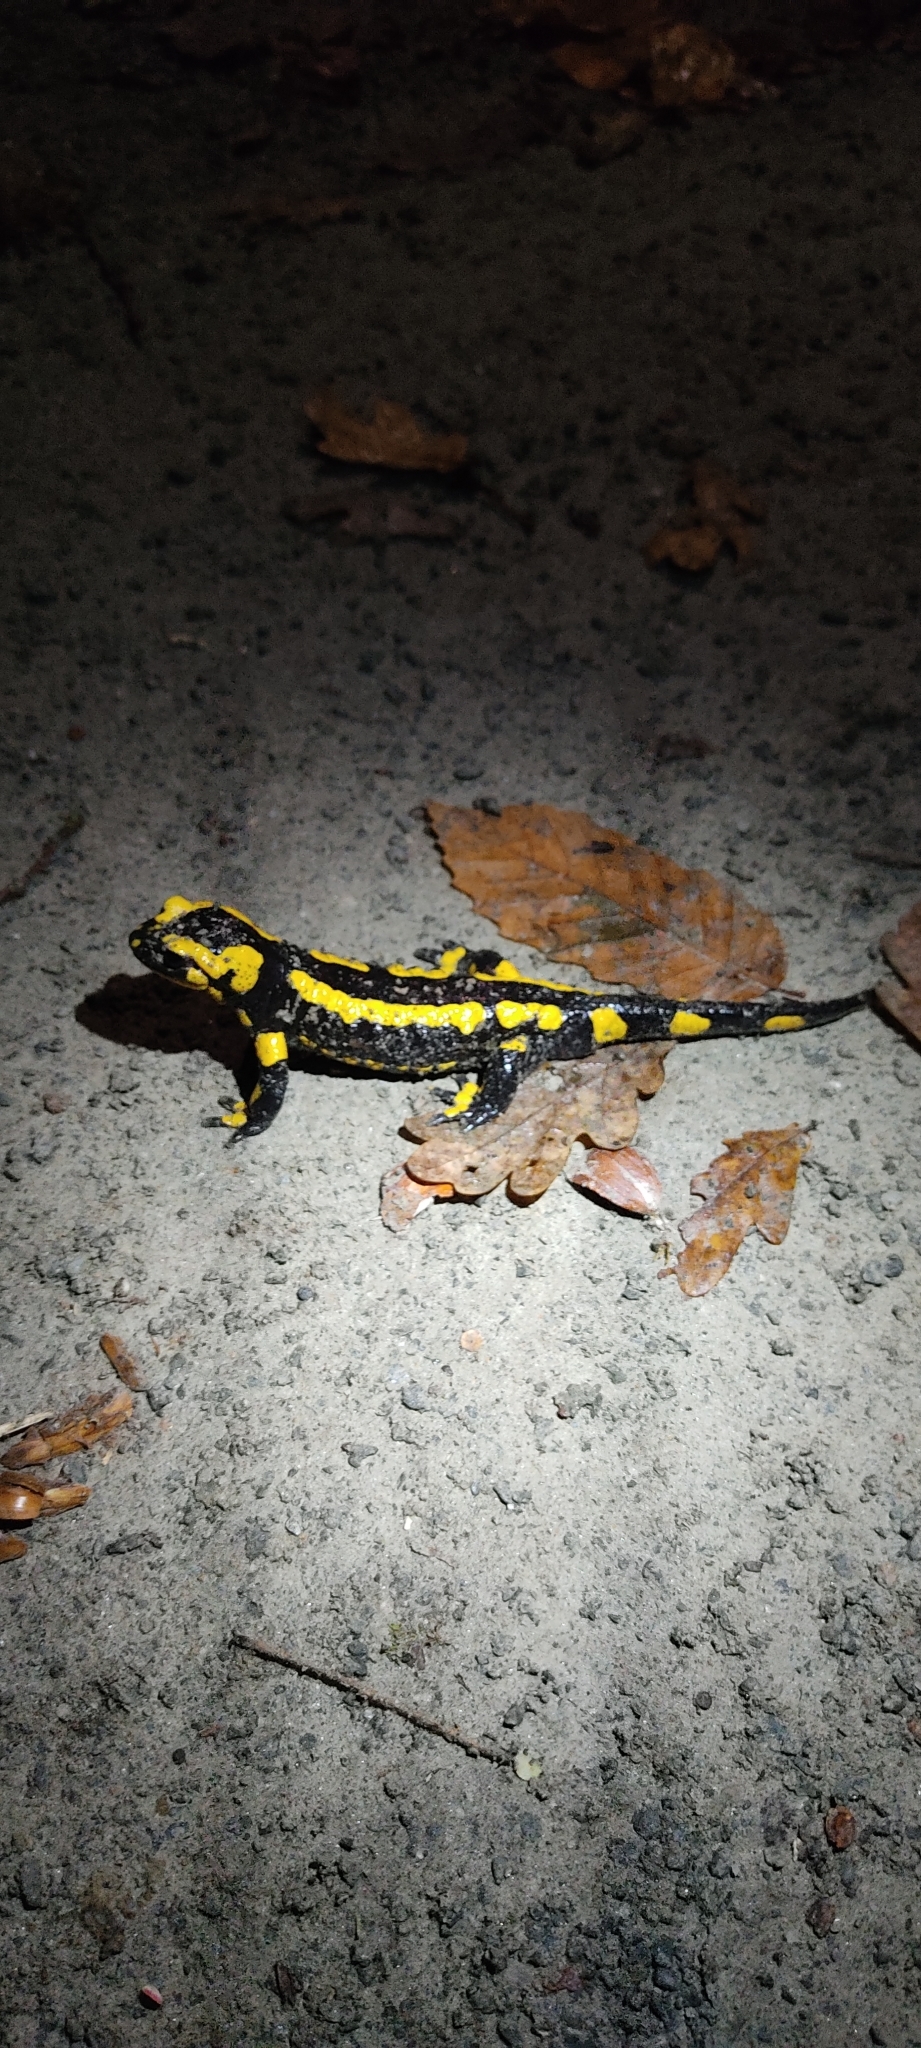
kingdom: Animalia
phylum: Chordata
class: Amphibia
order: Caudata
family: Salamandridae
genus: Salamandra
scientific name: Salamandra salamandra
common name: Fire salamander
